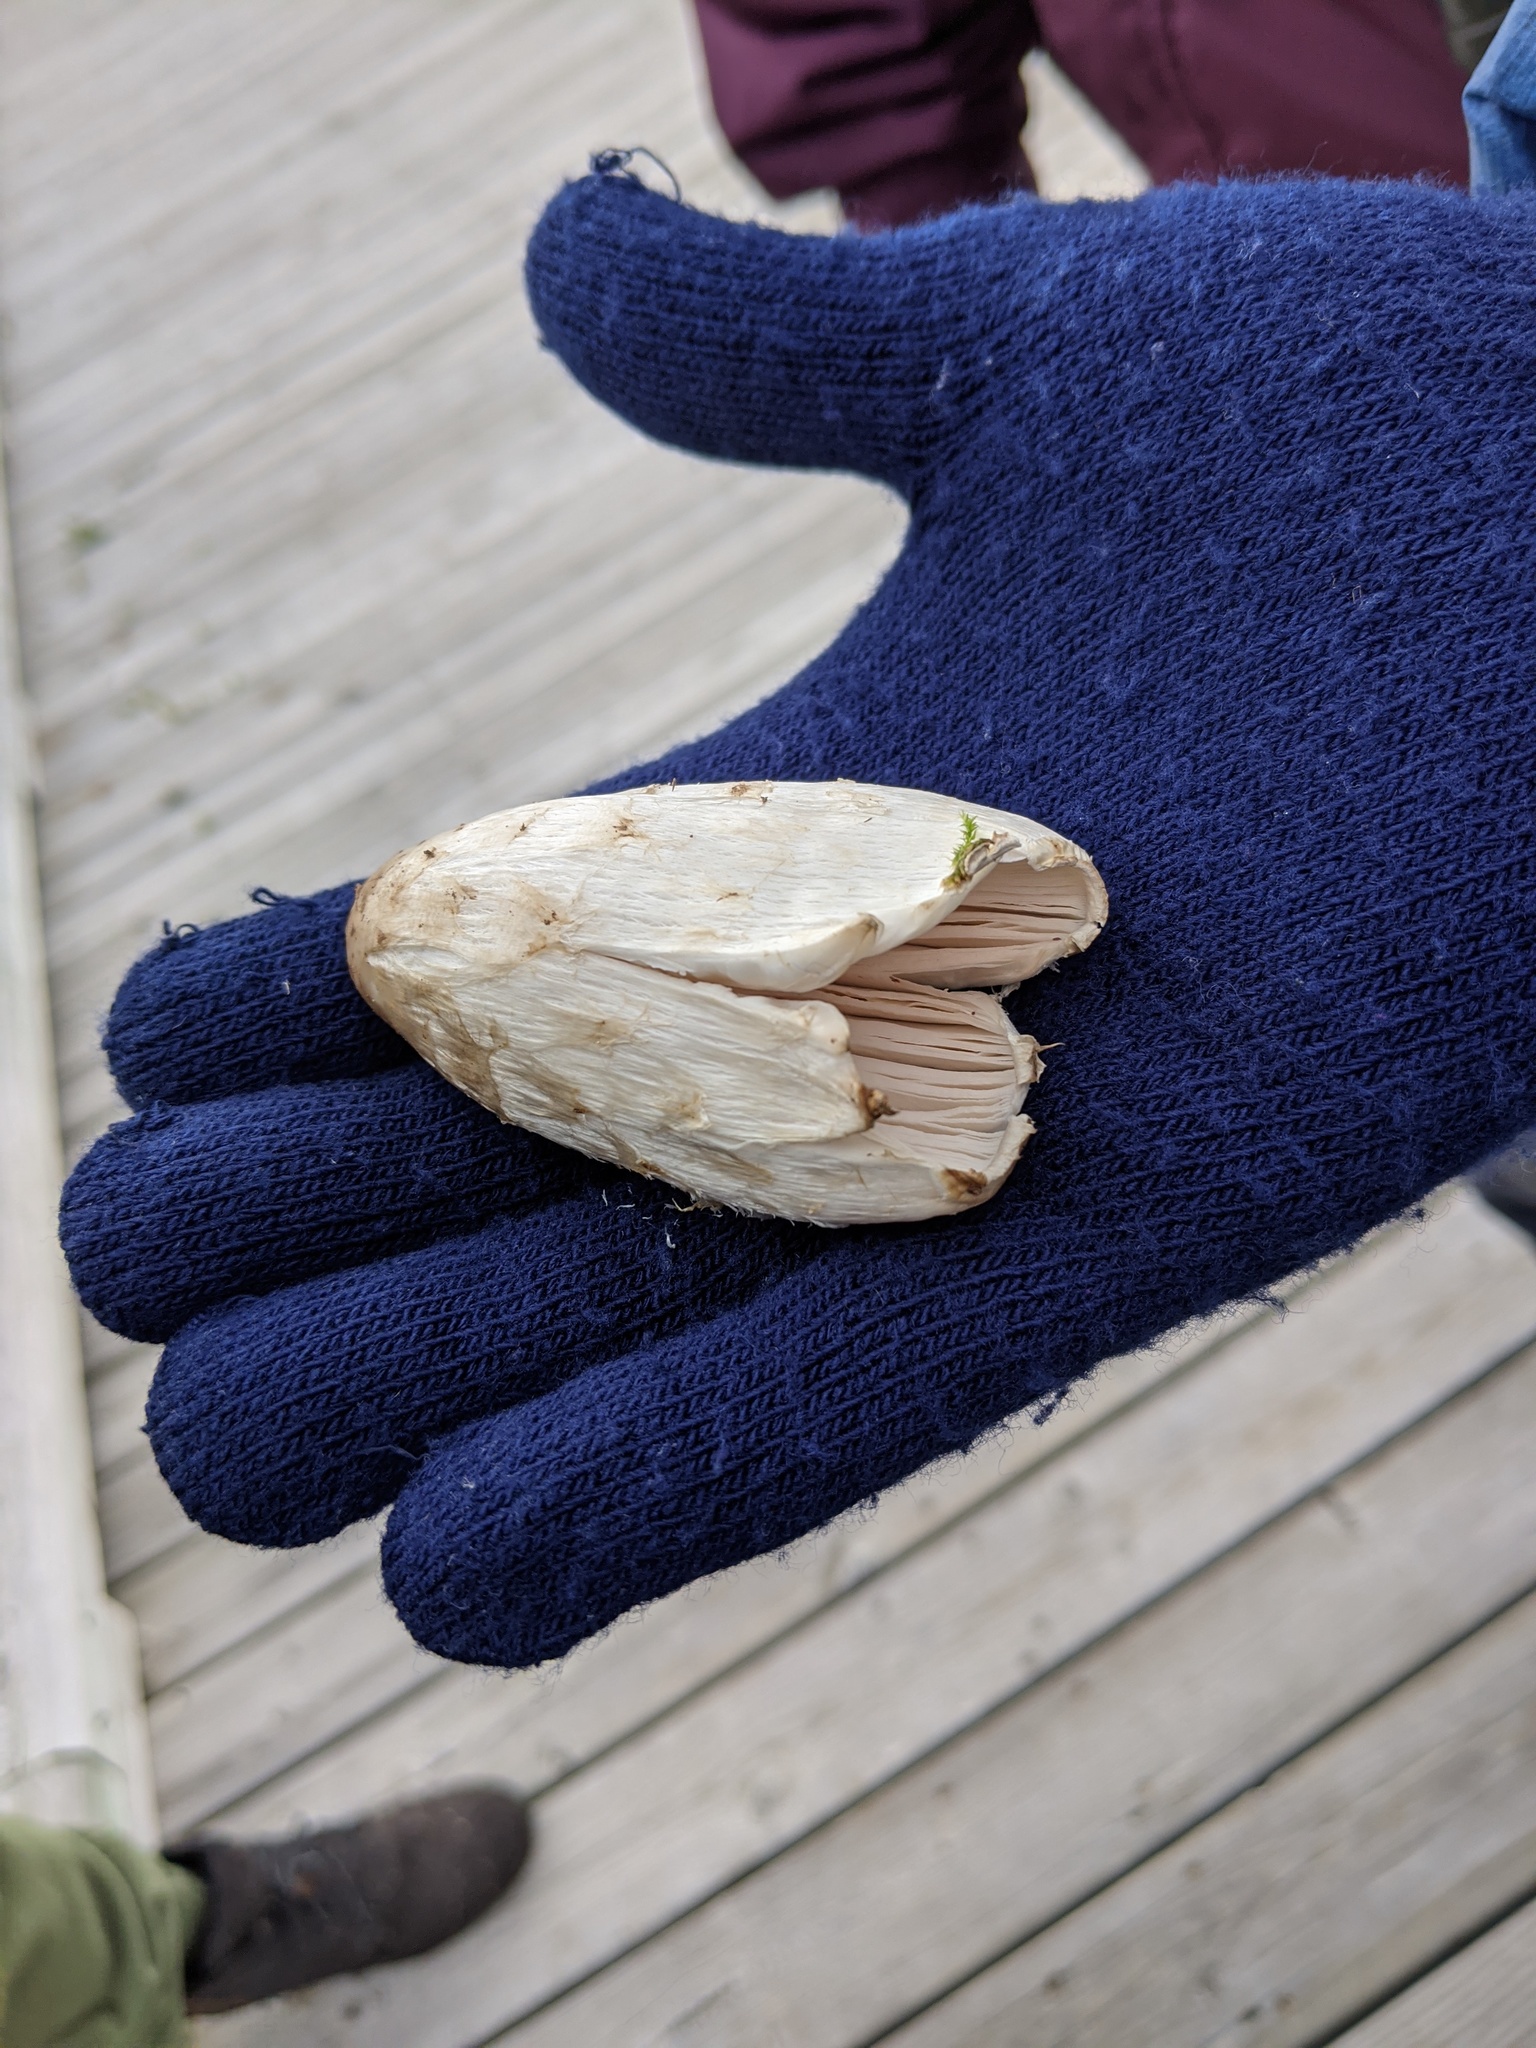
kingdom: Fungi
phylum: Basidiomycota
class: Agaricomycetes
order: Agaricales
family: Agaricaceae
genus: Coprinus
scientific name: Coprinus comatus
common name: Lawyer's wig
